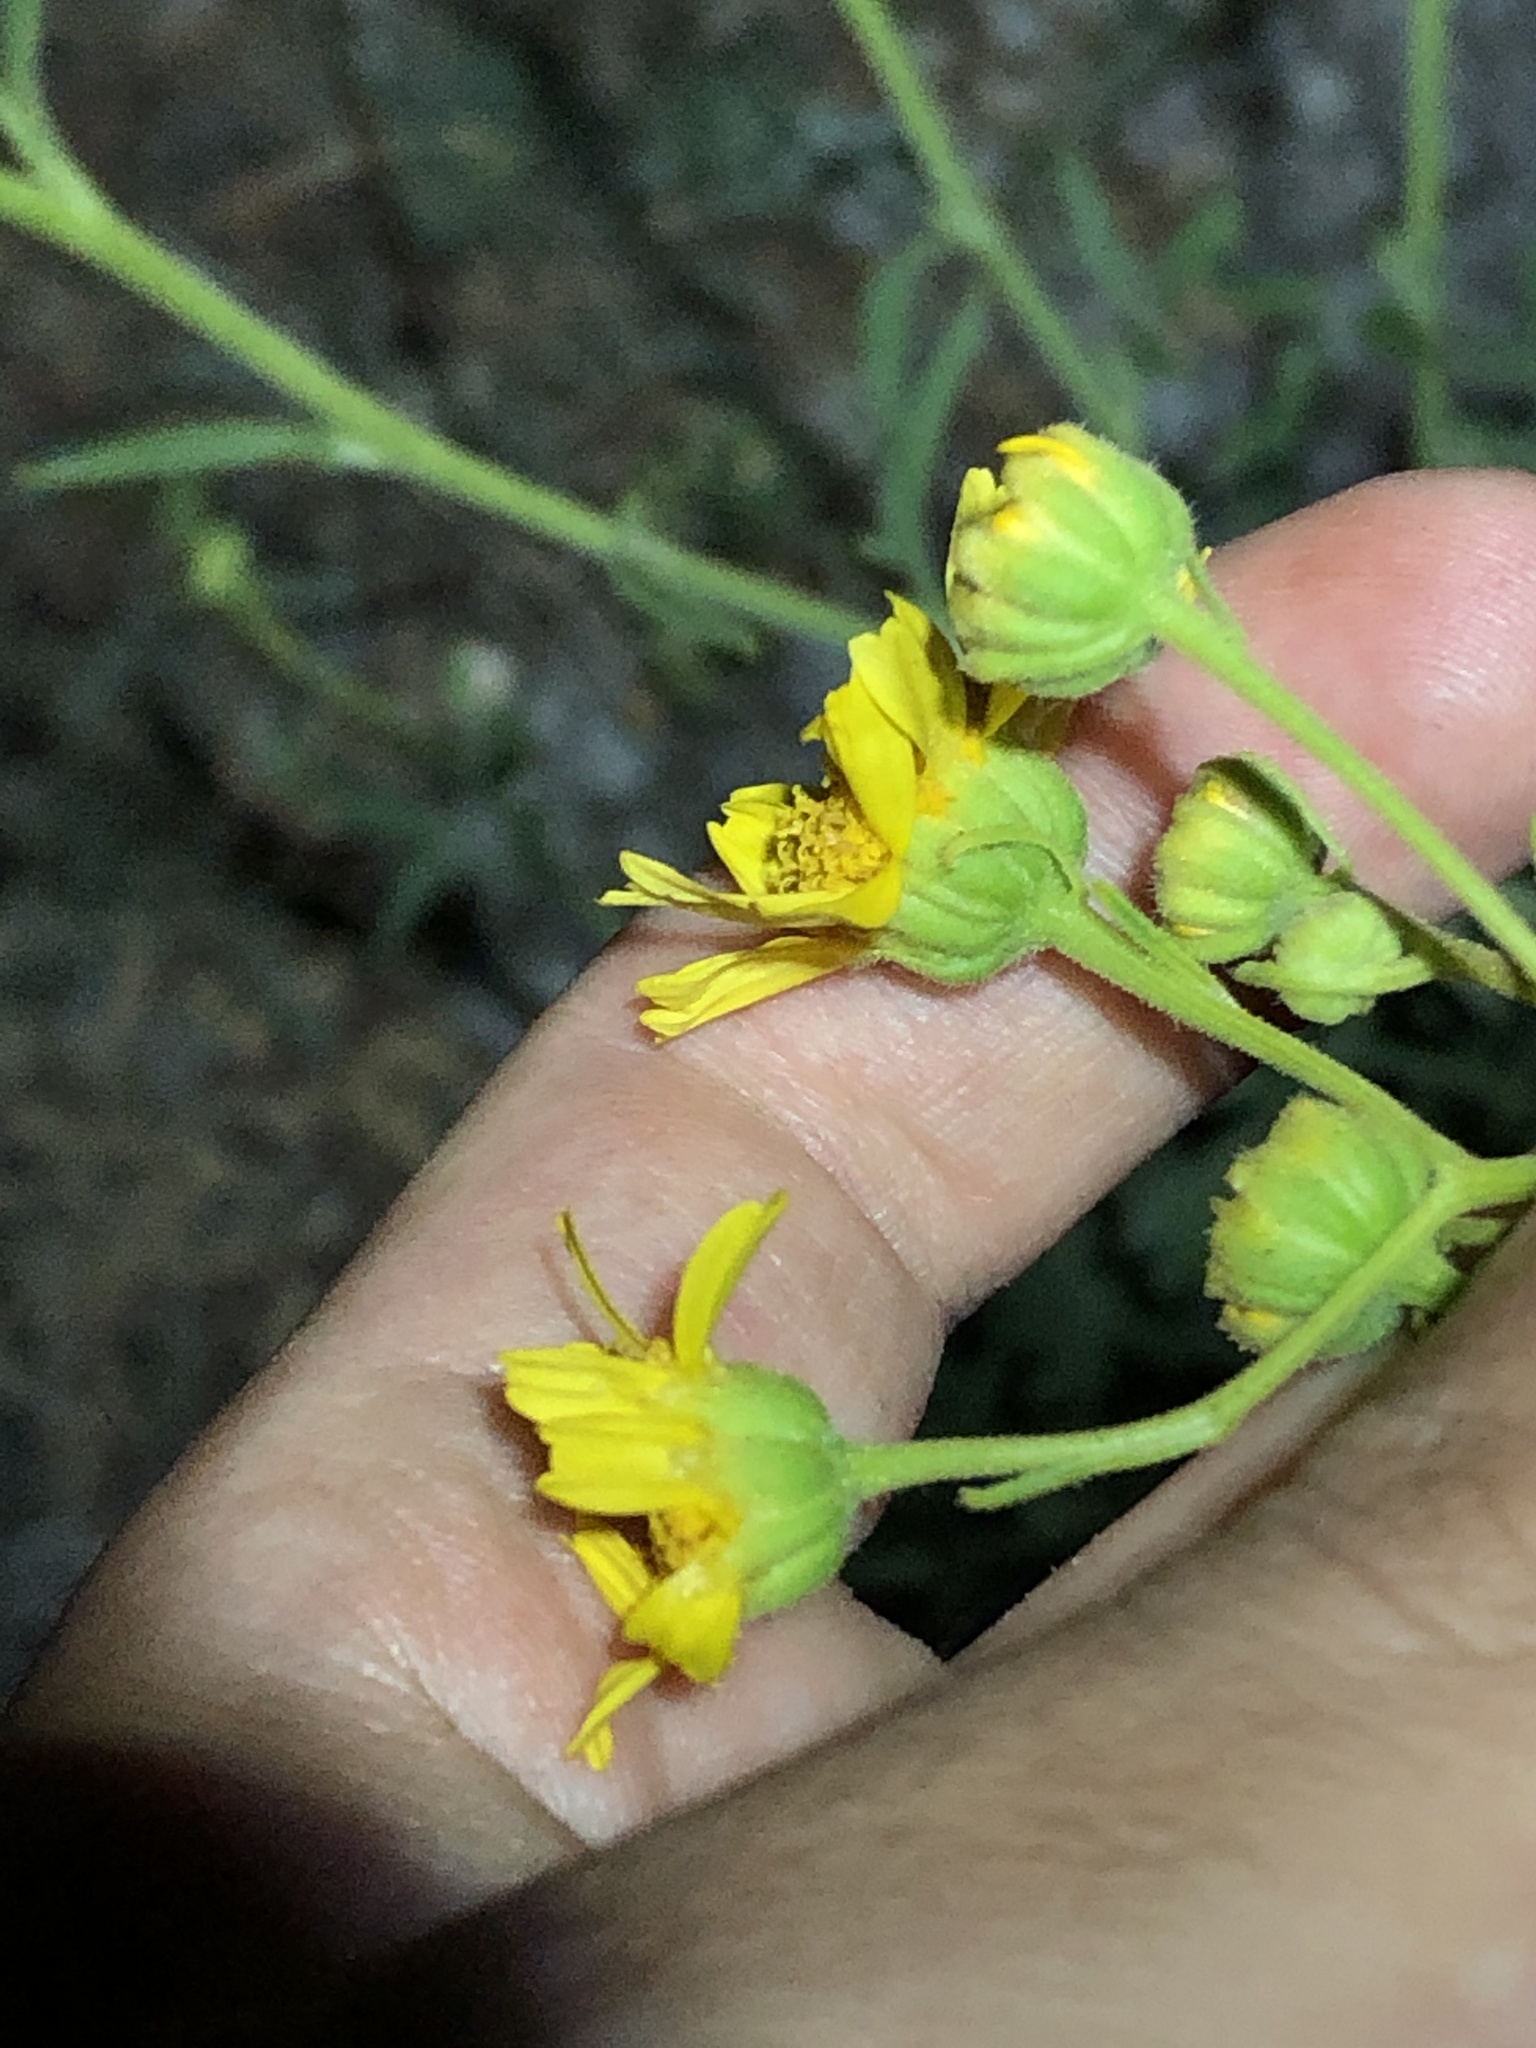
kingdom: Plantae
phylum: Tracheophyta
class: Magnoliopsida
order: Asterales
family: Asteraceae
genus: Hymenothrix
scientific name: Hymenothrix pedata
